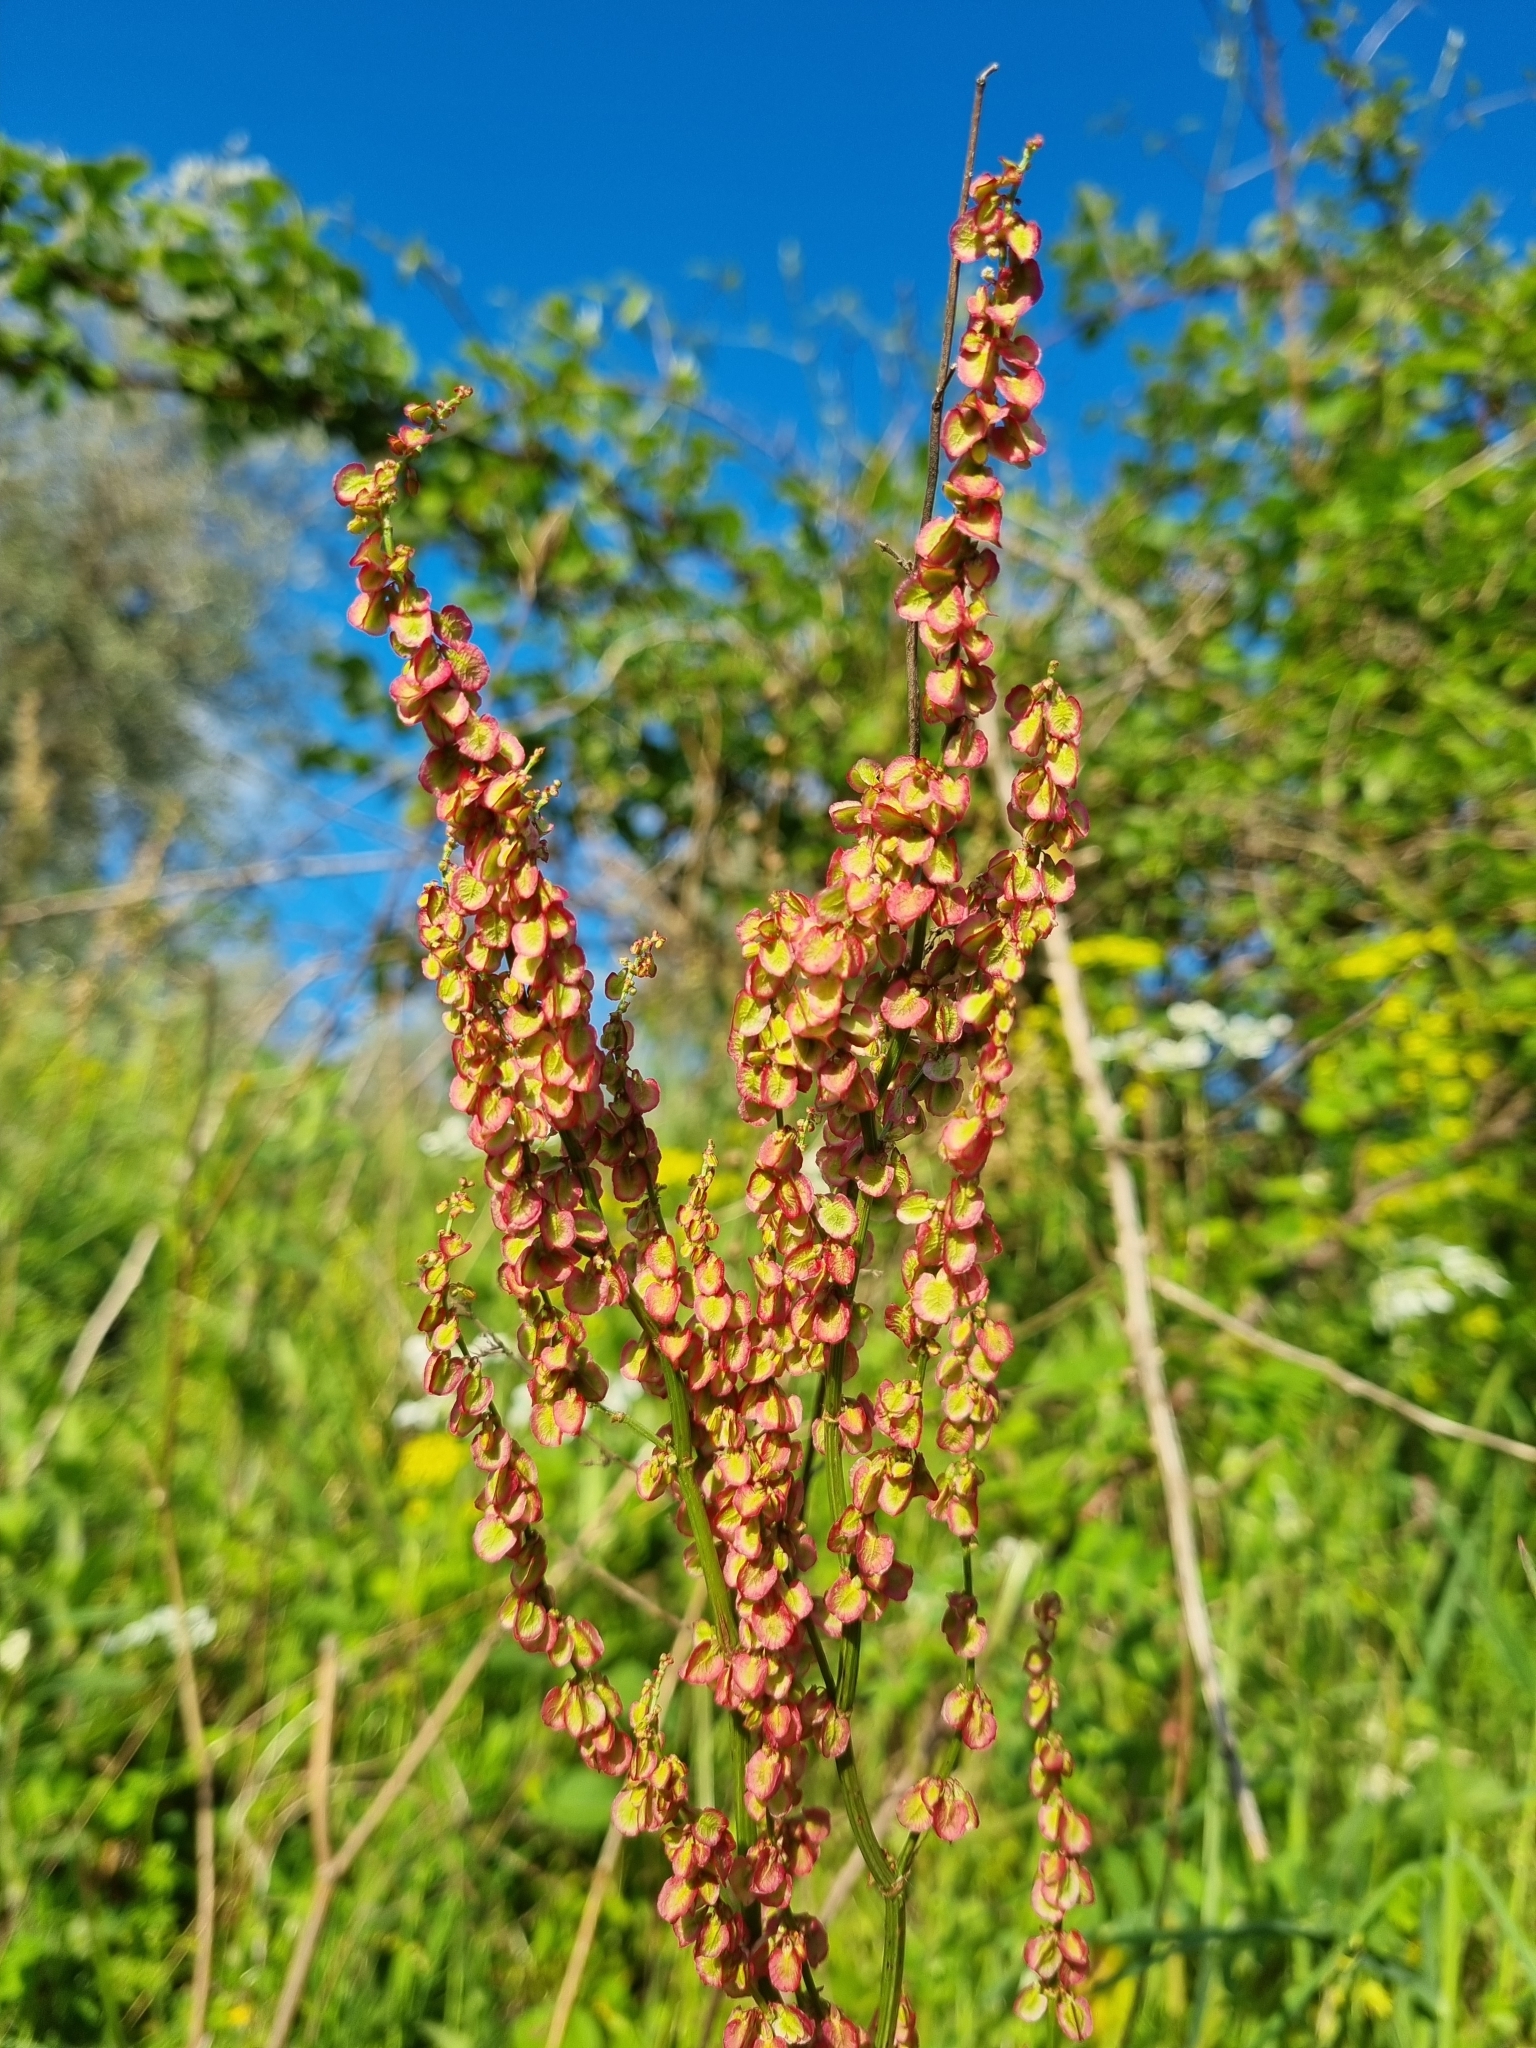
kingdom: Plantae
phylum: Tracheophyta
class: Magnoliopsida
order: Caryophyllales
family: Polygonaceae
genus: Rumex
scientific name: Rumex acetosa
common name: Garden sorrel
